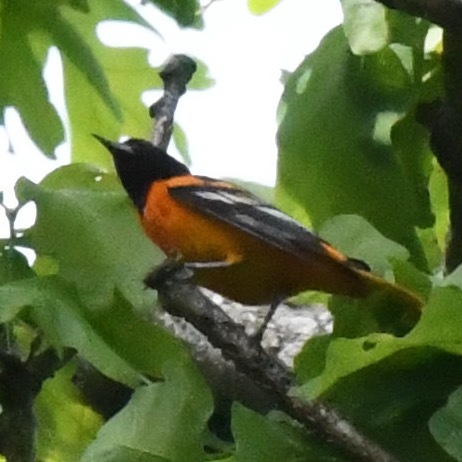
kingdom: Animalia
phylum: Chordata
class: Aves
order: Passeriformes
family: Icteridae
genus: Icterus
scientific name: Icterus galbula
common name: Baltimore oriole
